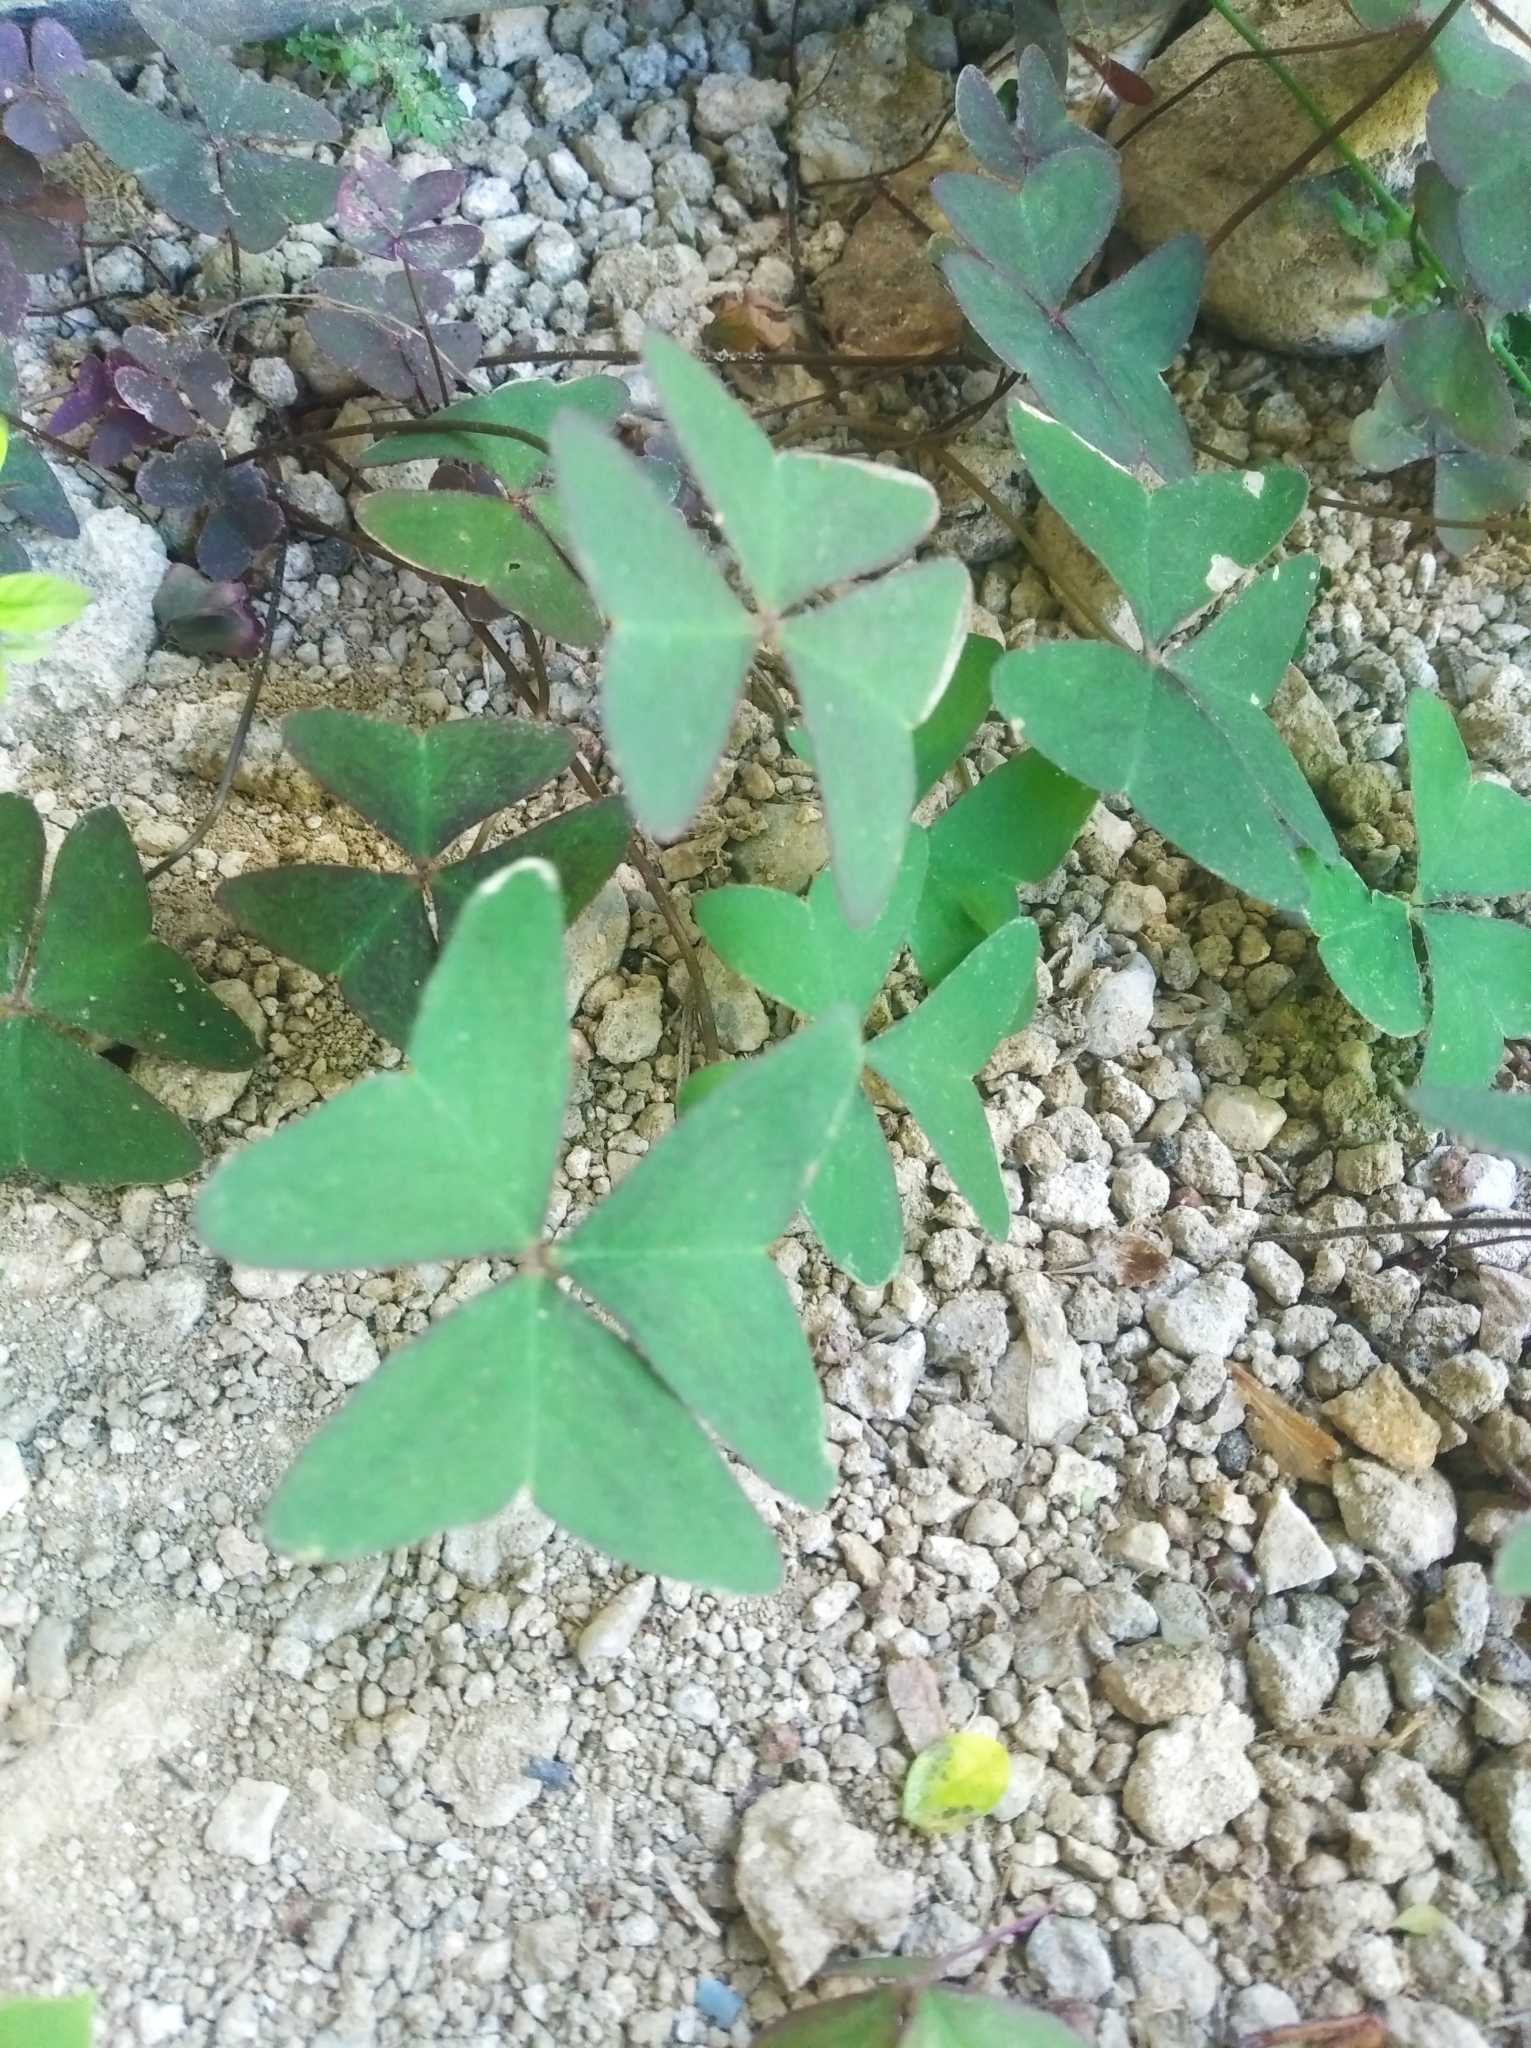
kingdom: Plantae
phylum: Tracheophyta
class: Magnoliopsida
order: Oxalidales
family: Oxalidaceae
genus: Oxalis
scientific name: Oxalis latifolia
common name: Garden pink-sorrel
